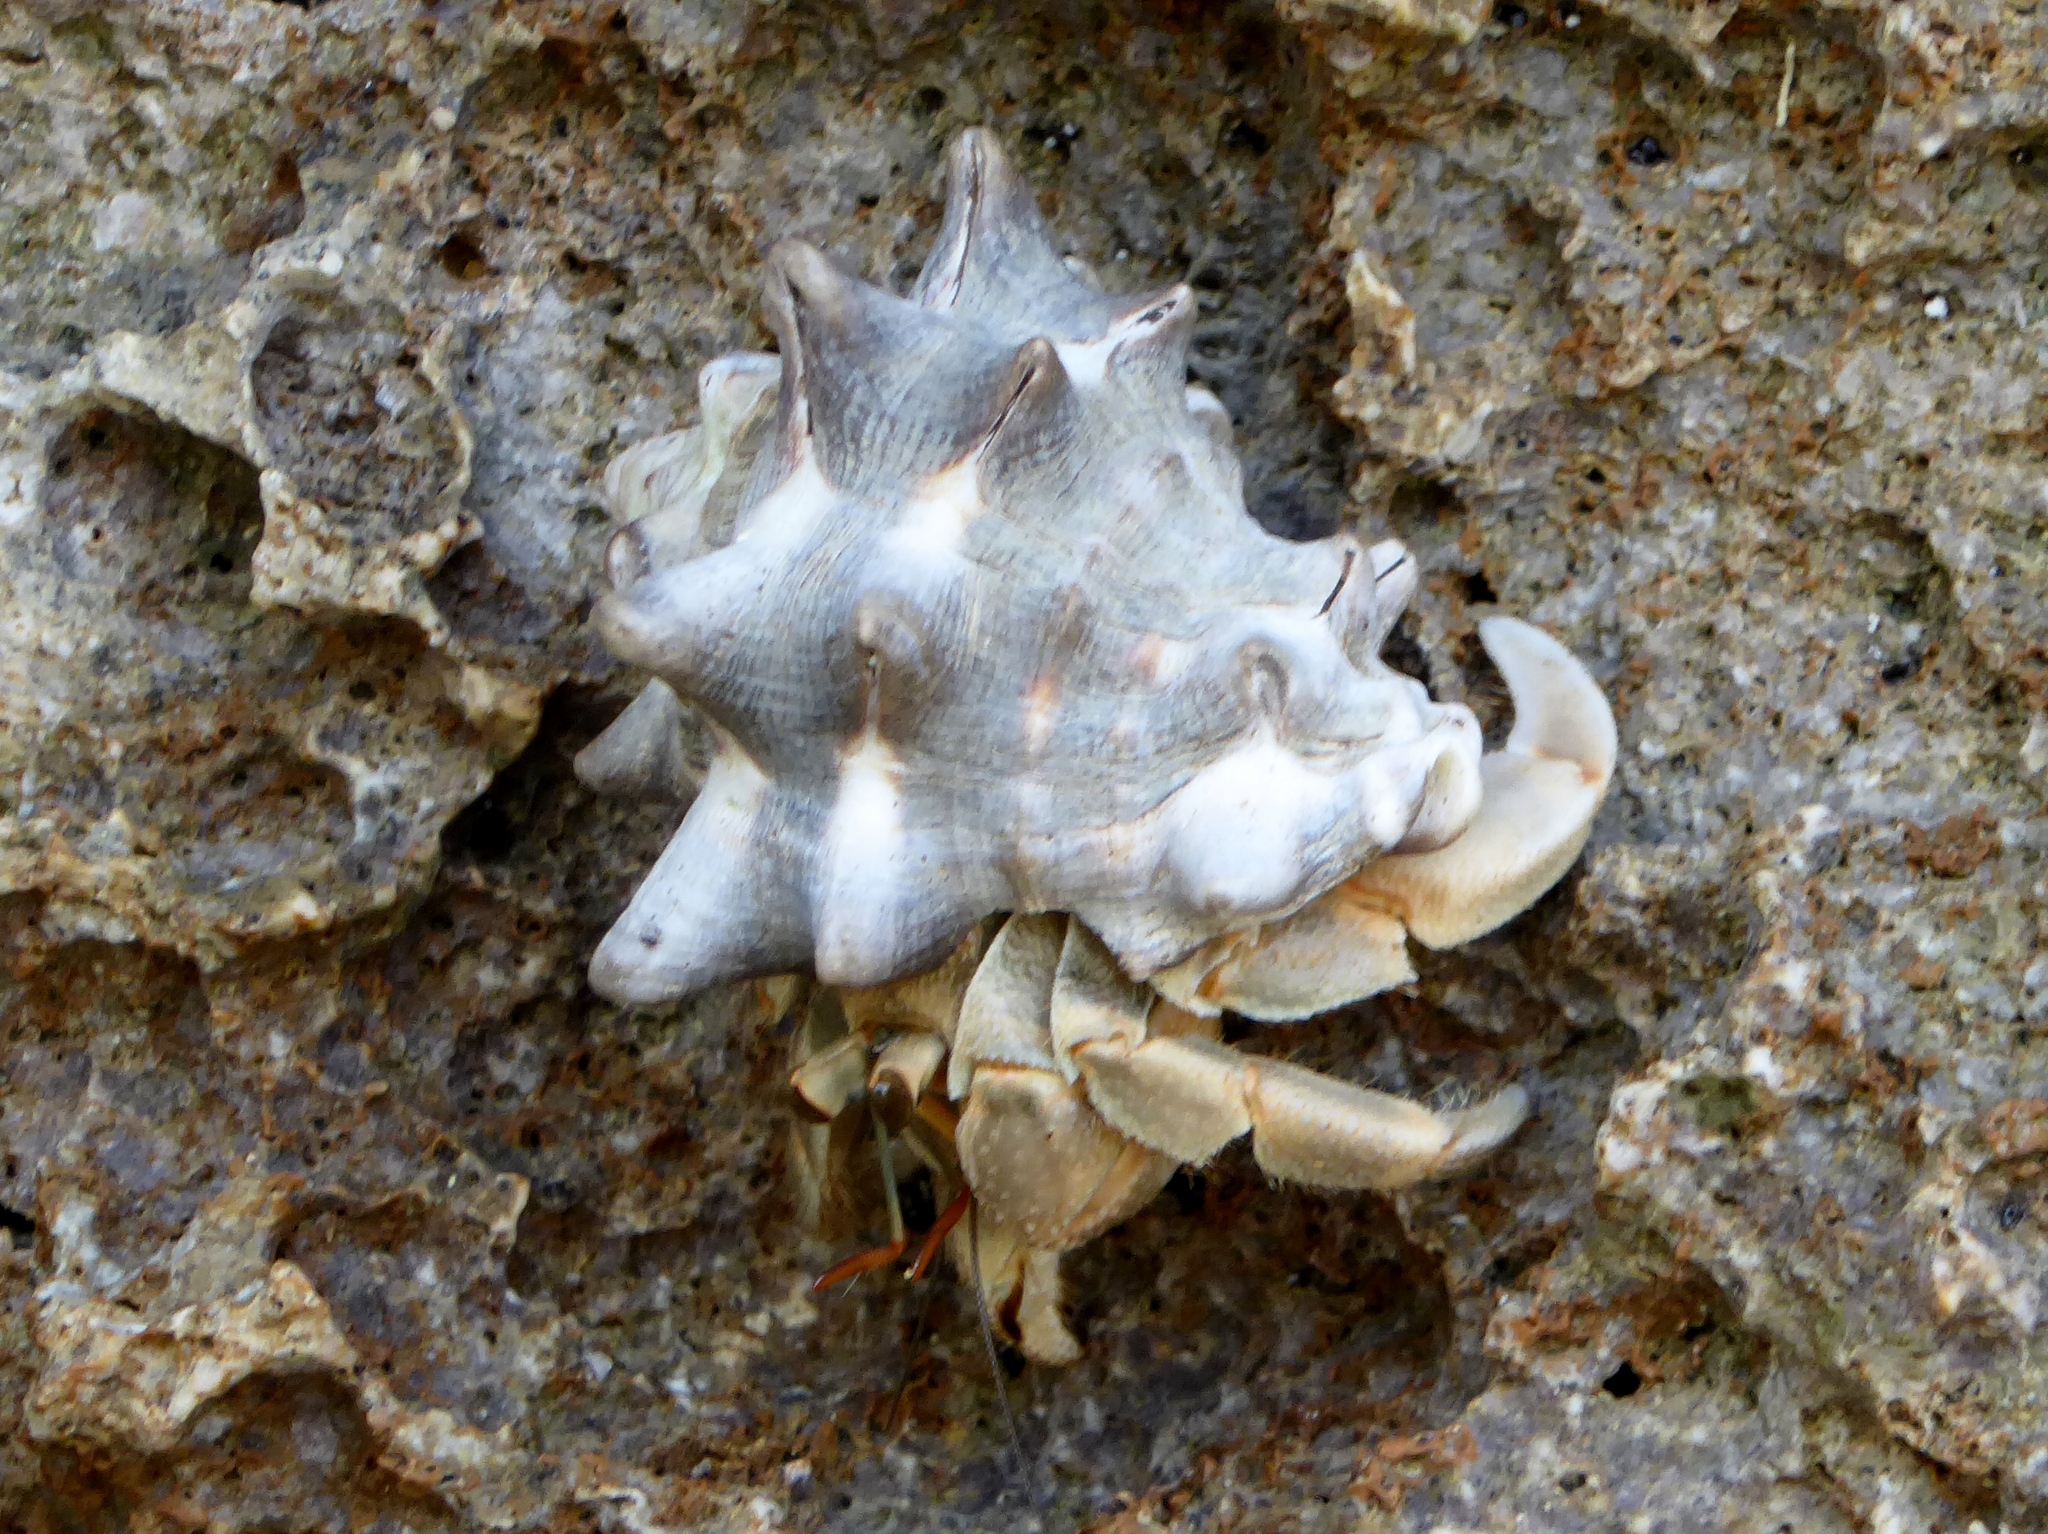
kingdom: Animalia
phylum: Arthropoda
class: Malacostraca
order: Decapoda
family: Coenobitidae
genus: Coenobita
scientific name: Coenobita rugosus
